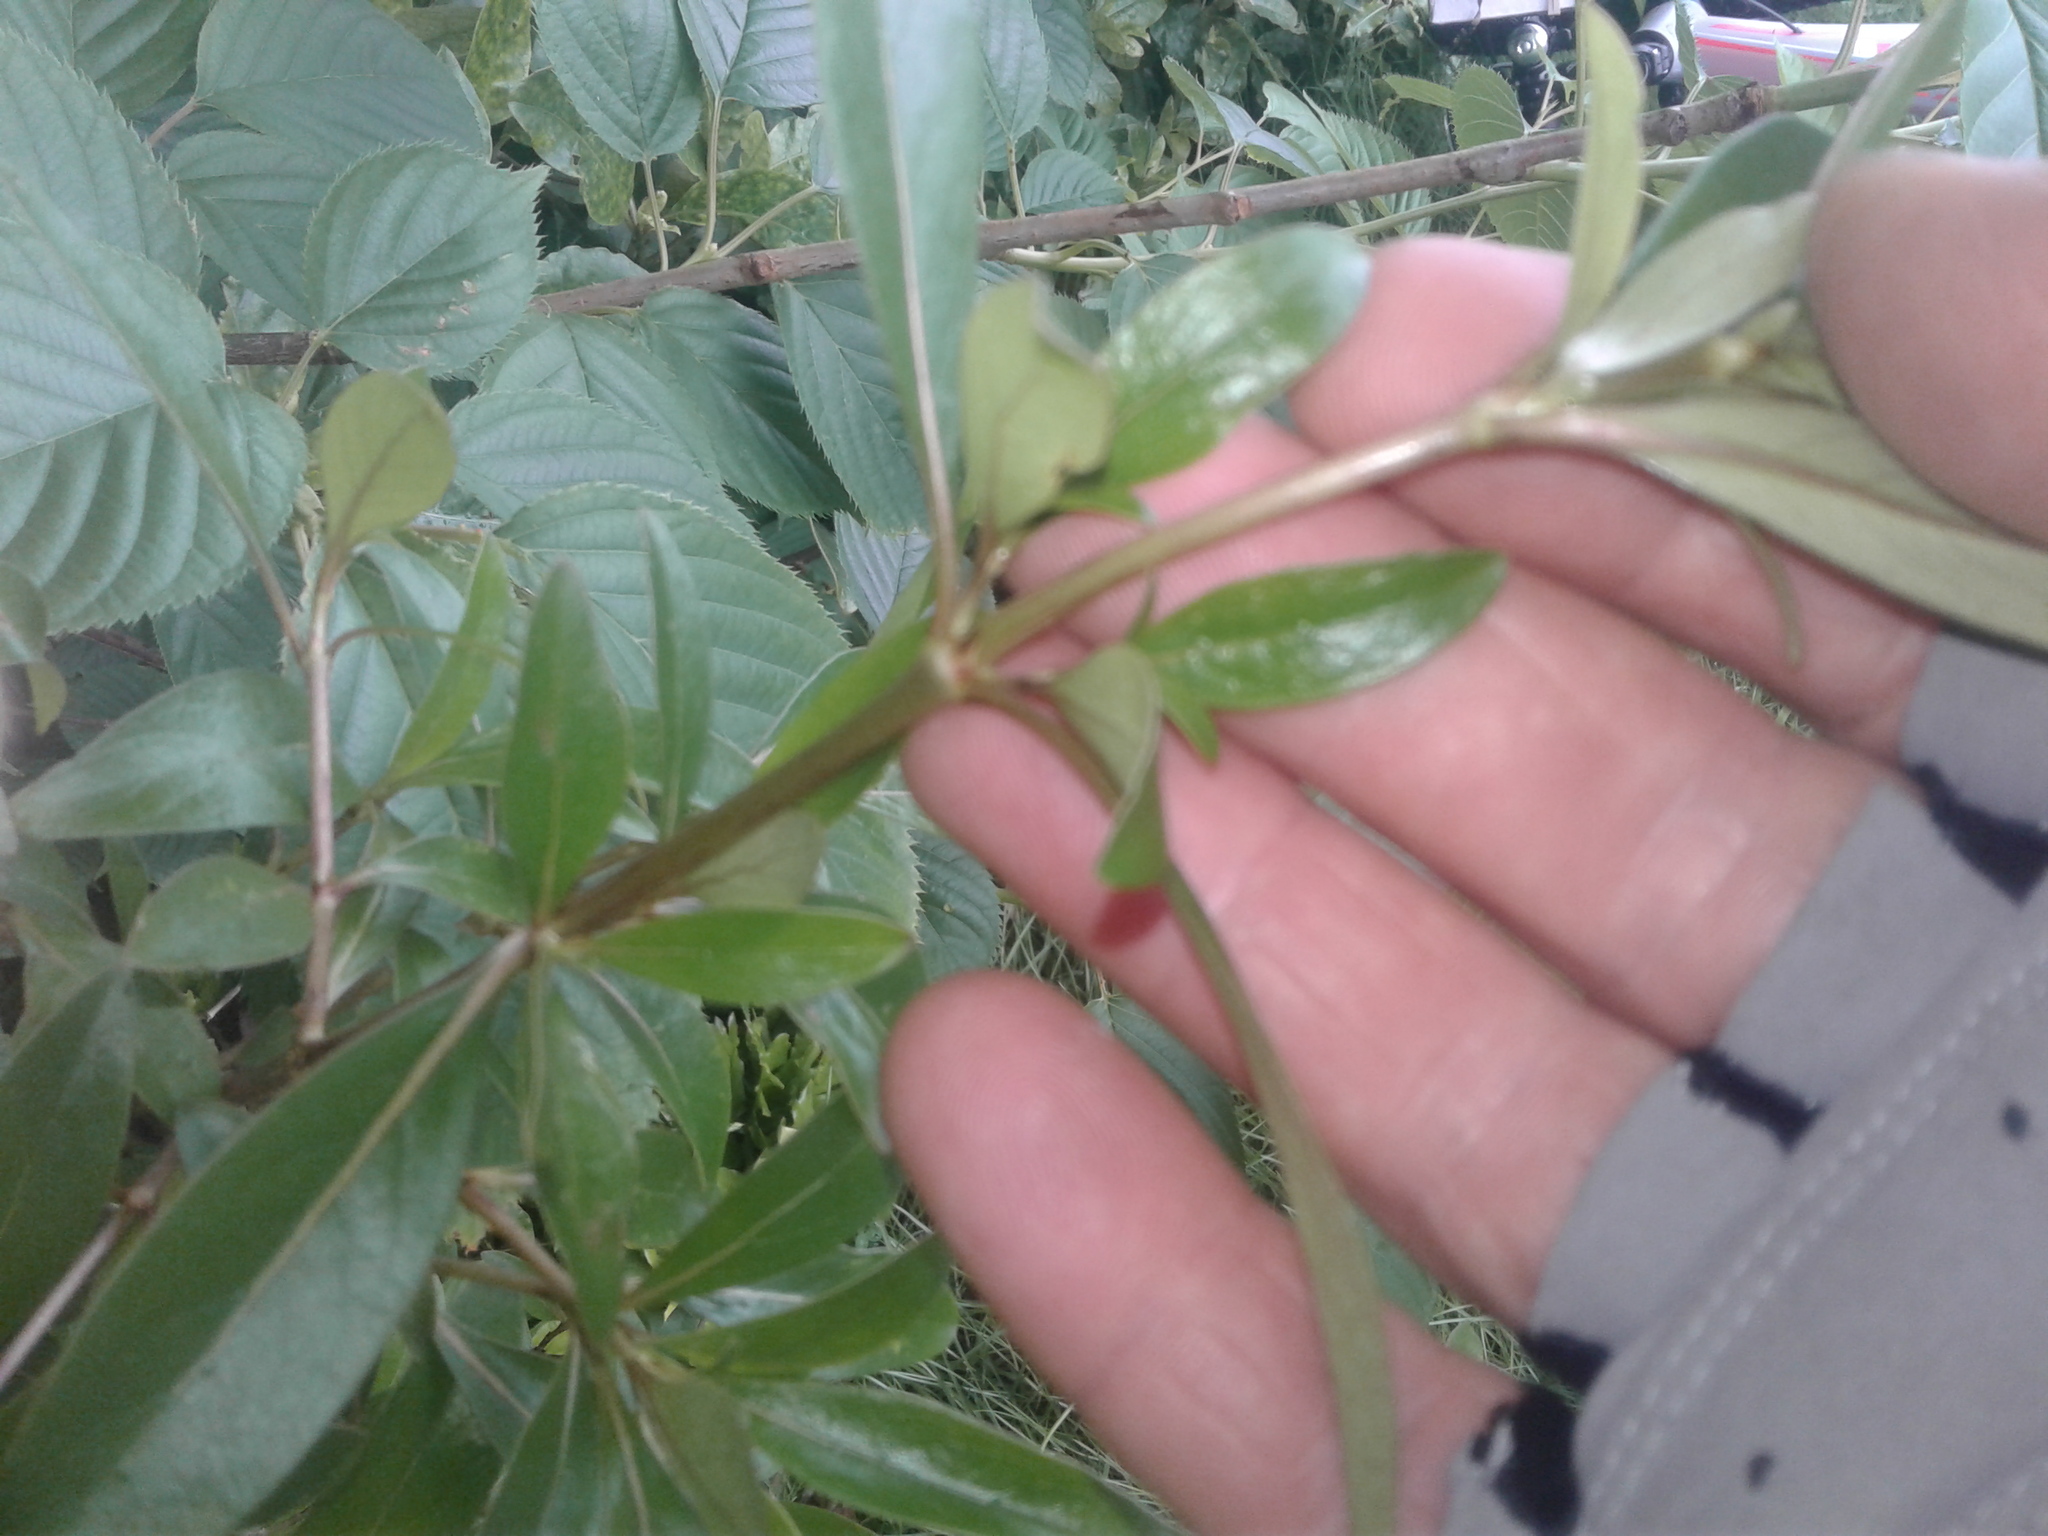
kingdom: Plantae
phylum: Tracheophyta
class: Magnoliopsida
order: Gentianales
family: Rubiaceae
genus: Coprosma
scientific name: Coprosma lucida
